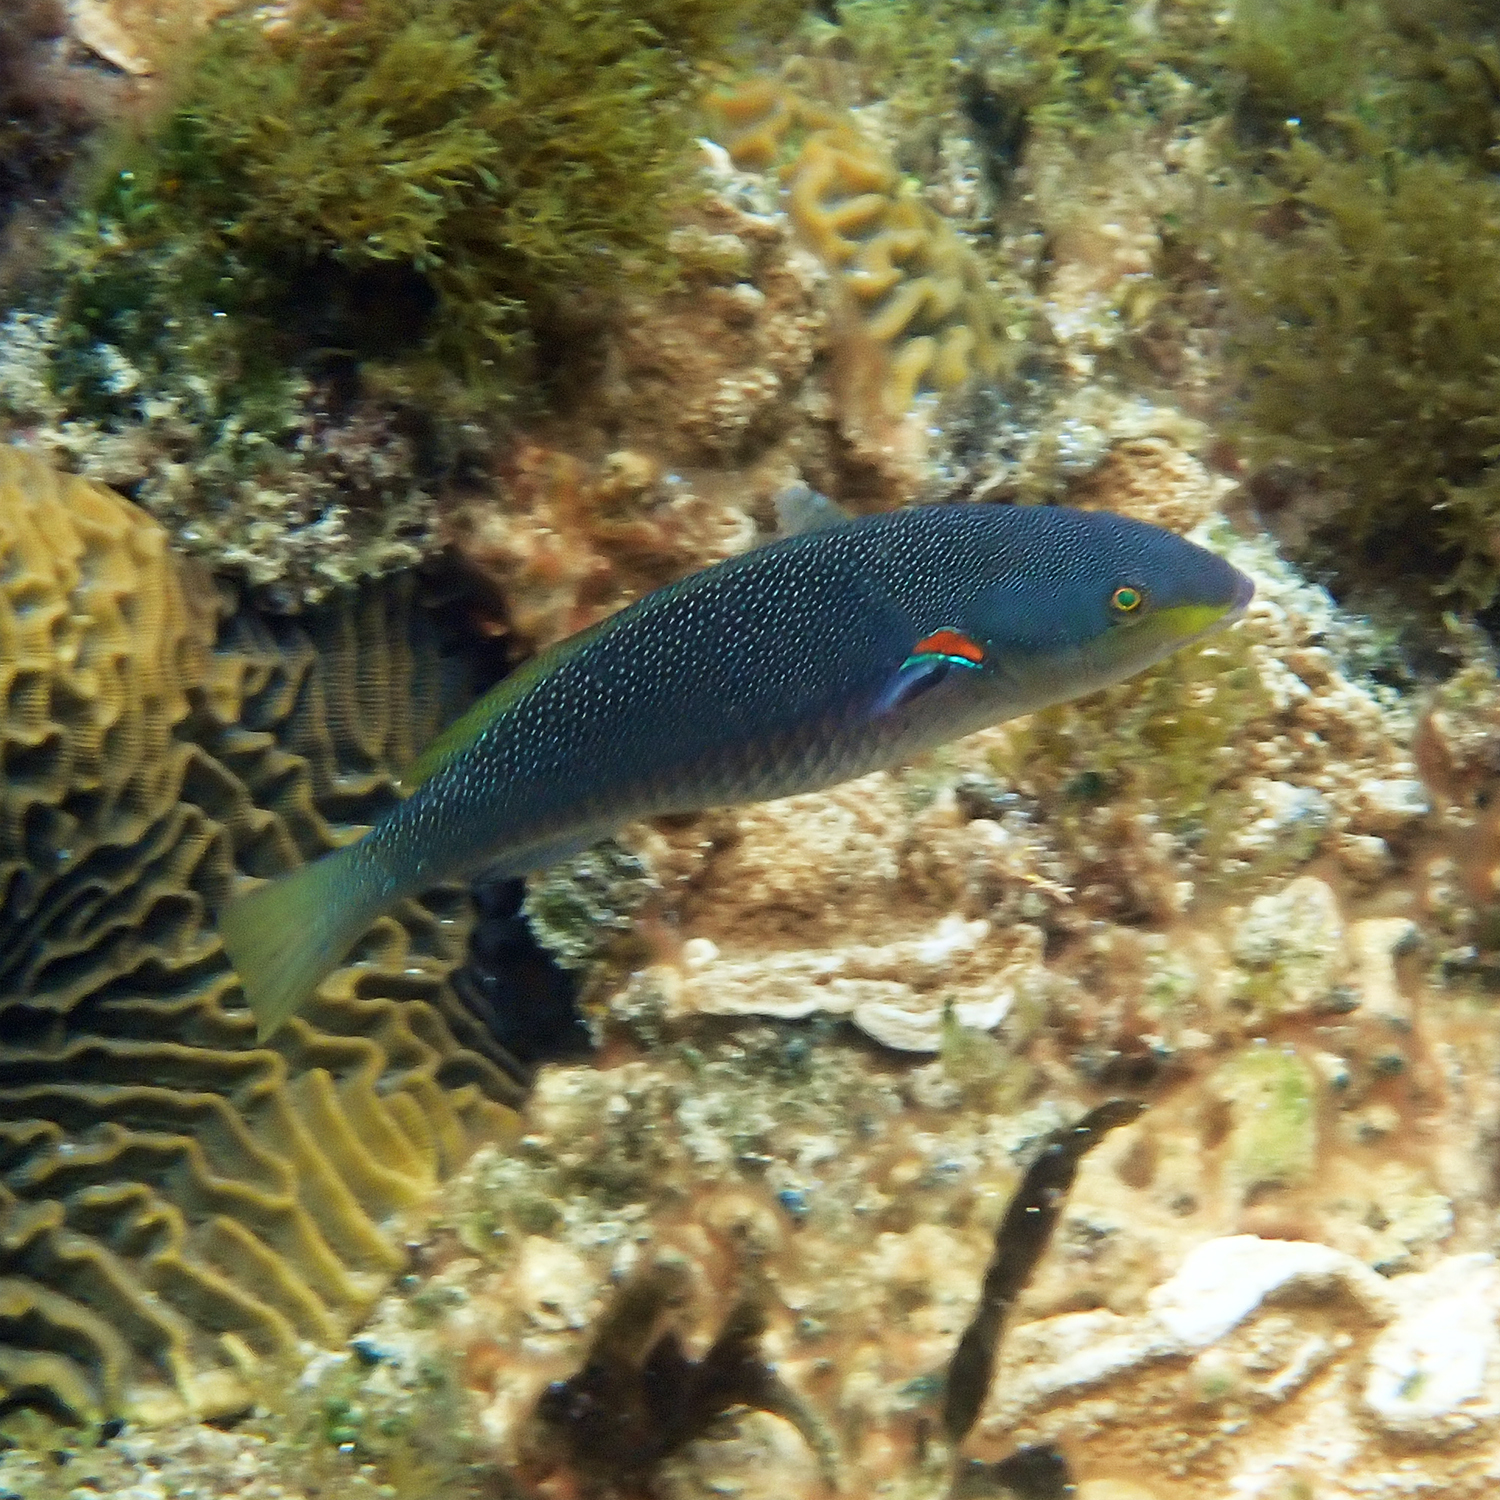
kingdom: Animalia
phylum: Chordata
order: Perciformes
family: Labridae
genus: Stethojulis
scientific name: Stethojulis bandanensis
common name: Red shoulder wrasse
